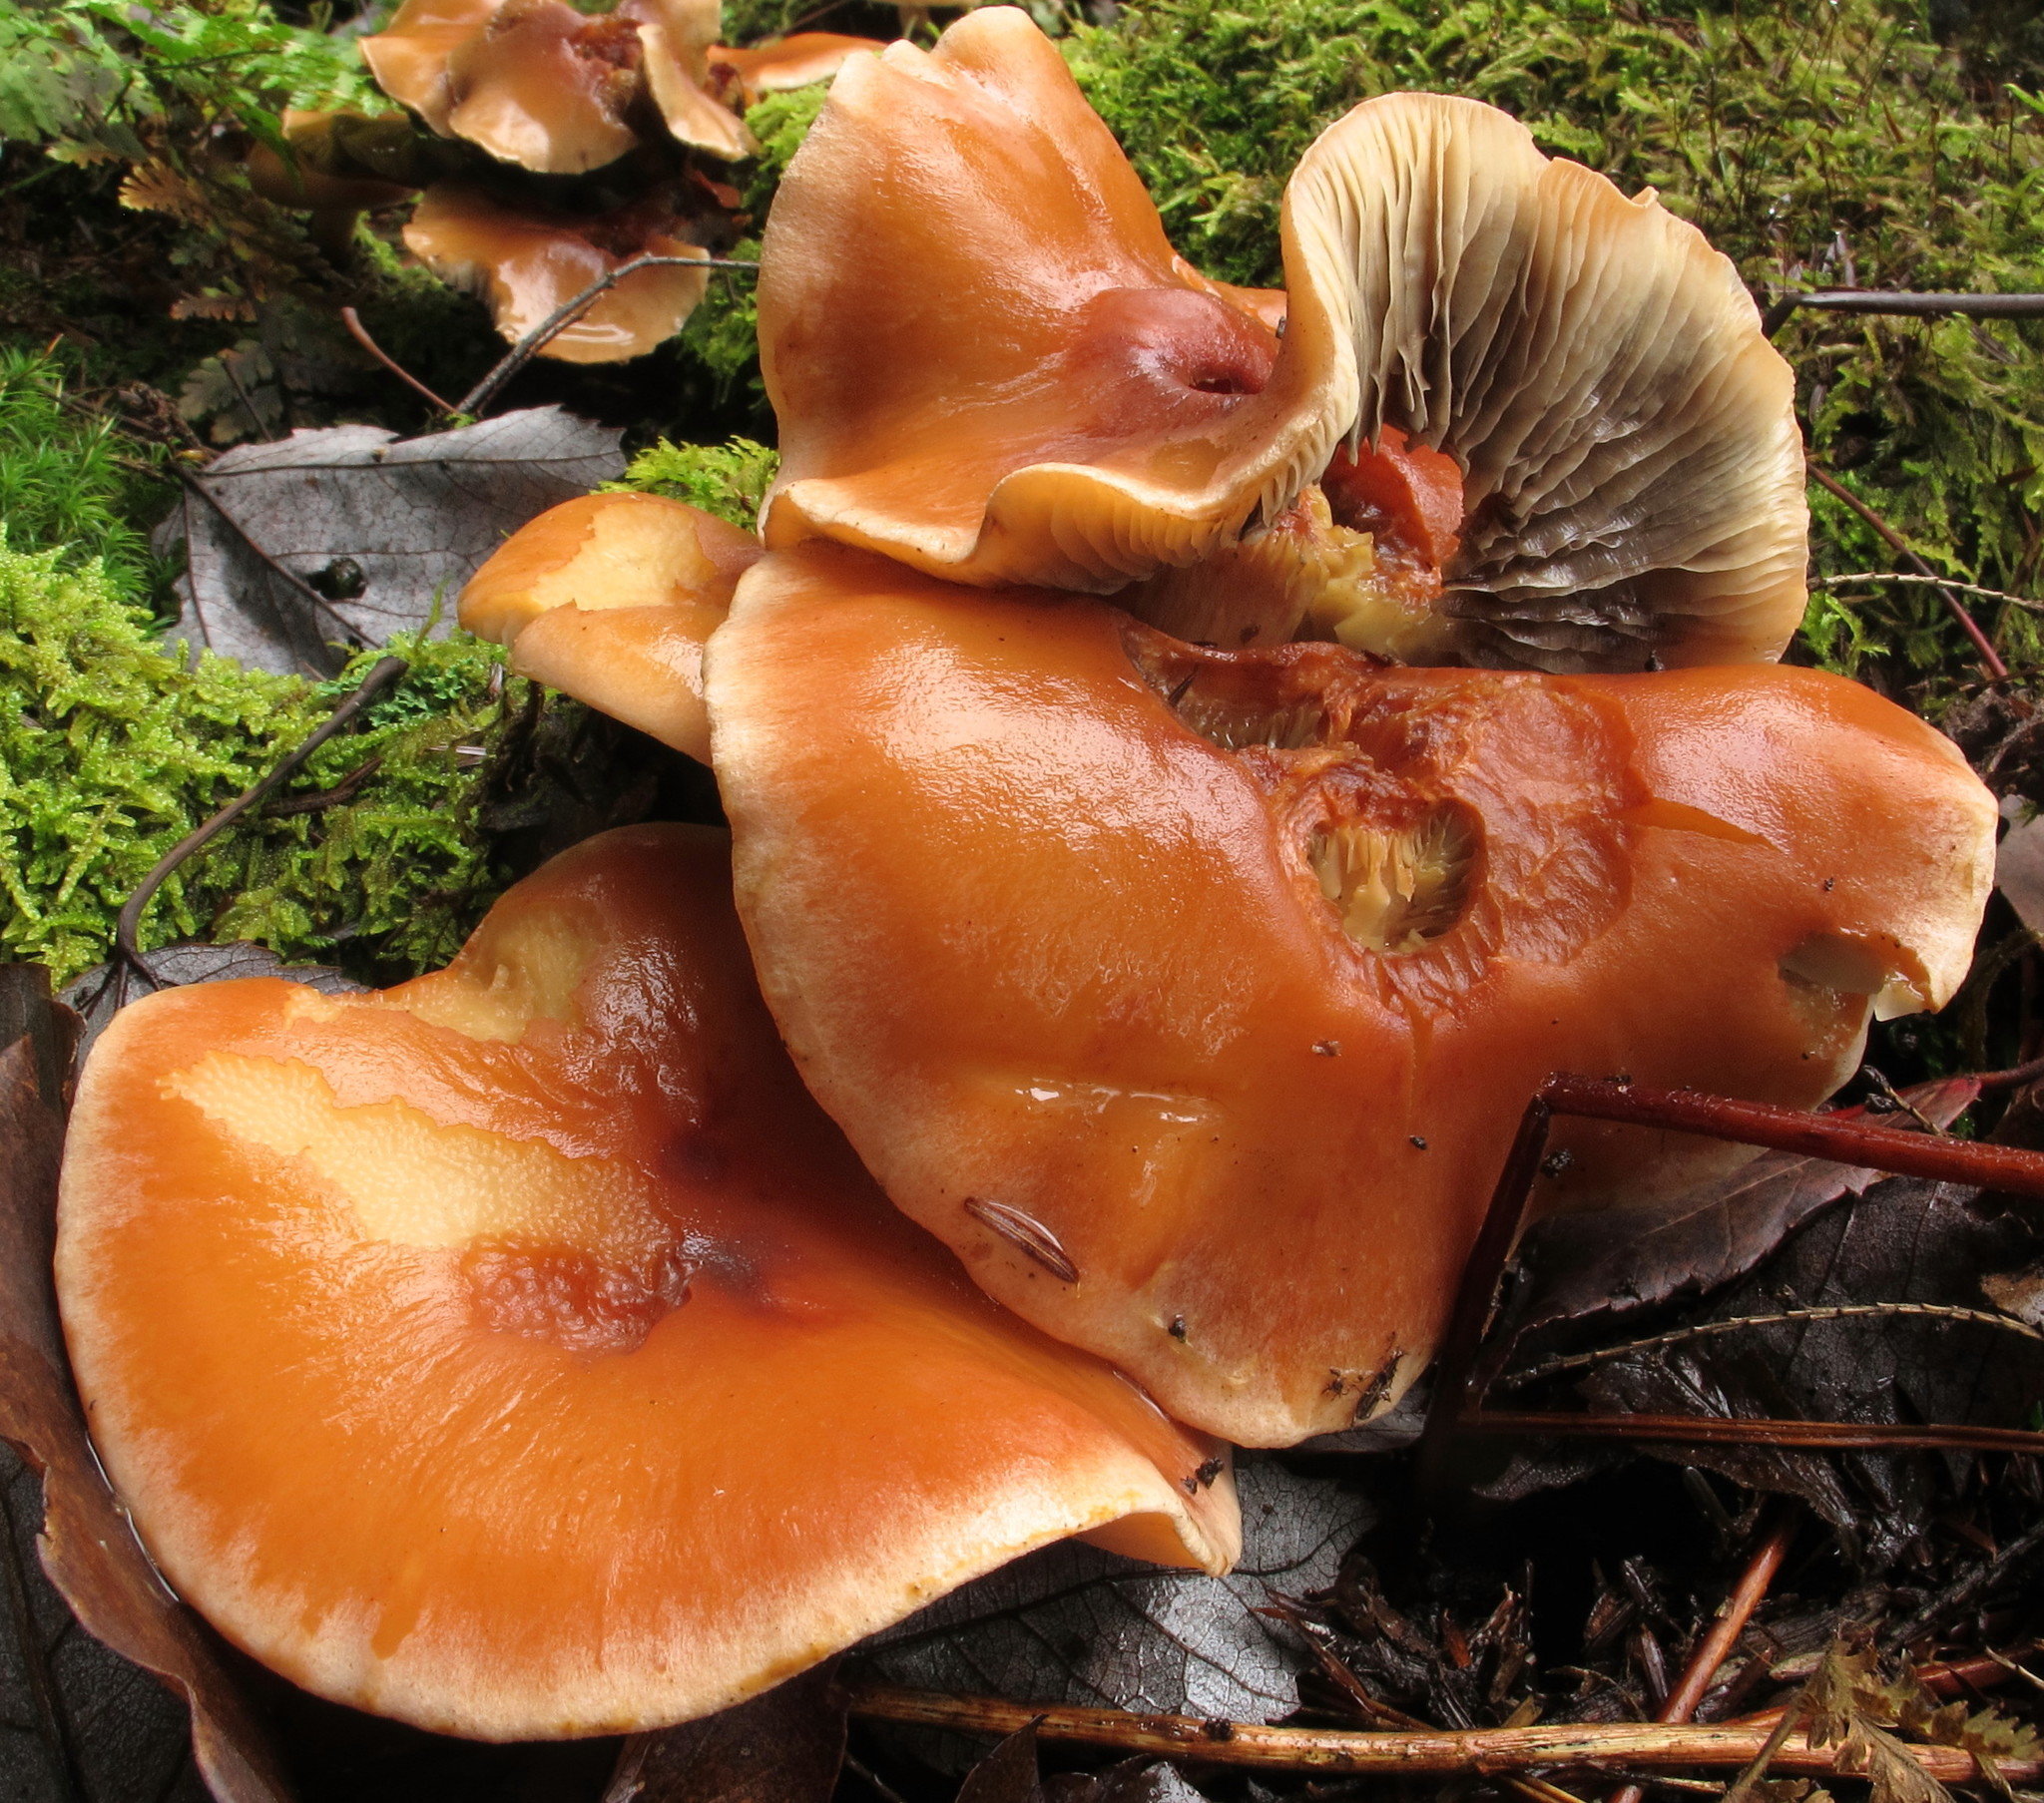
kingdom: Fungi
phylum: Basidiomycota
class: Agaricomycetes
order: Agaricales
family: Strophariaceae
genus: Hypholoma
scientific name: Hypholoma lateritium
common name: Brick caps
